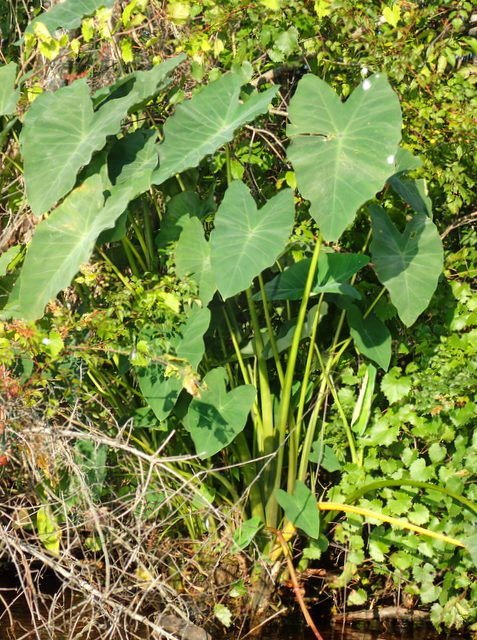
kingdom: Plantae
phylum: Tracheophyta
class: Liliopsida
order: Alismatales
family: Araceae
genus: Colocasia
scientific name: Colocasia esculenta
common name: Taro
